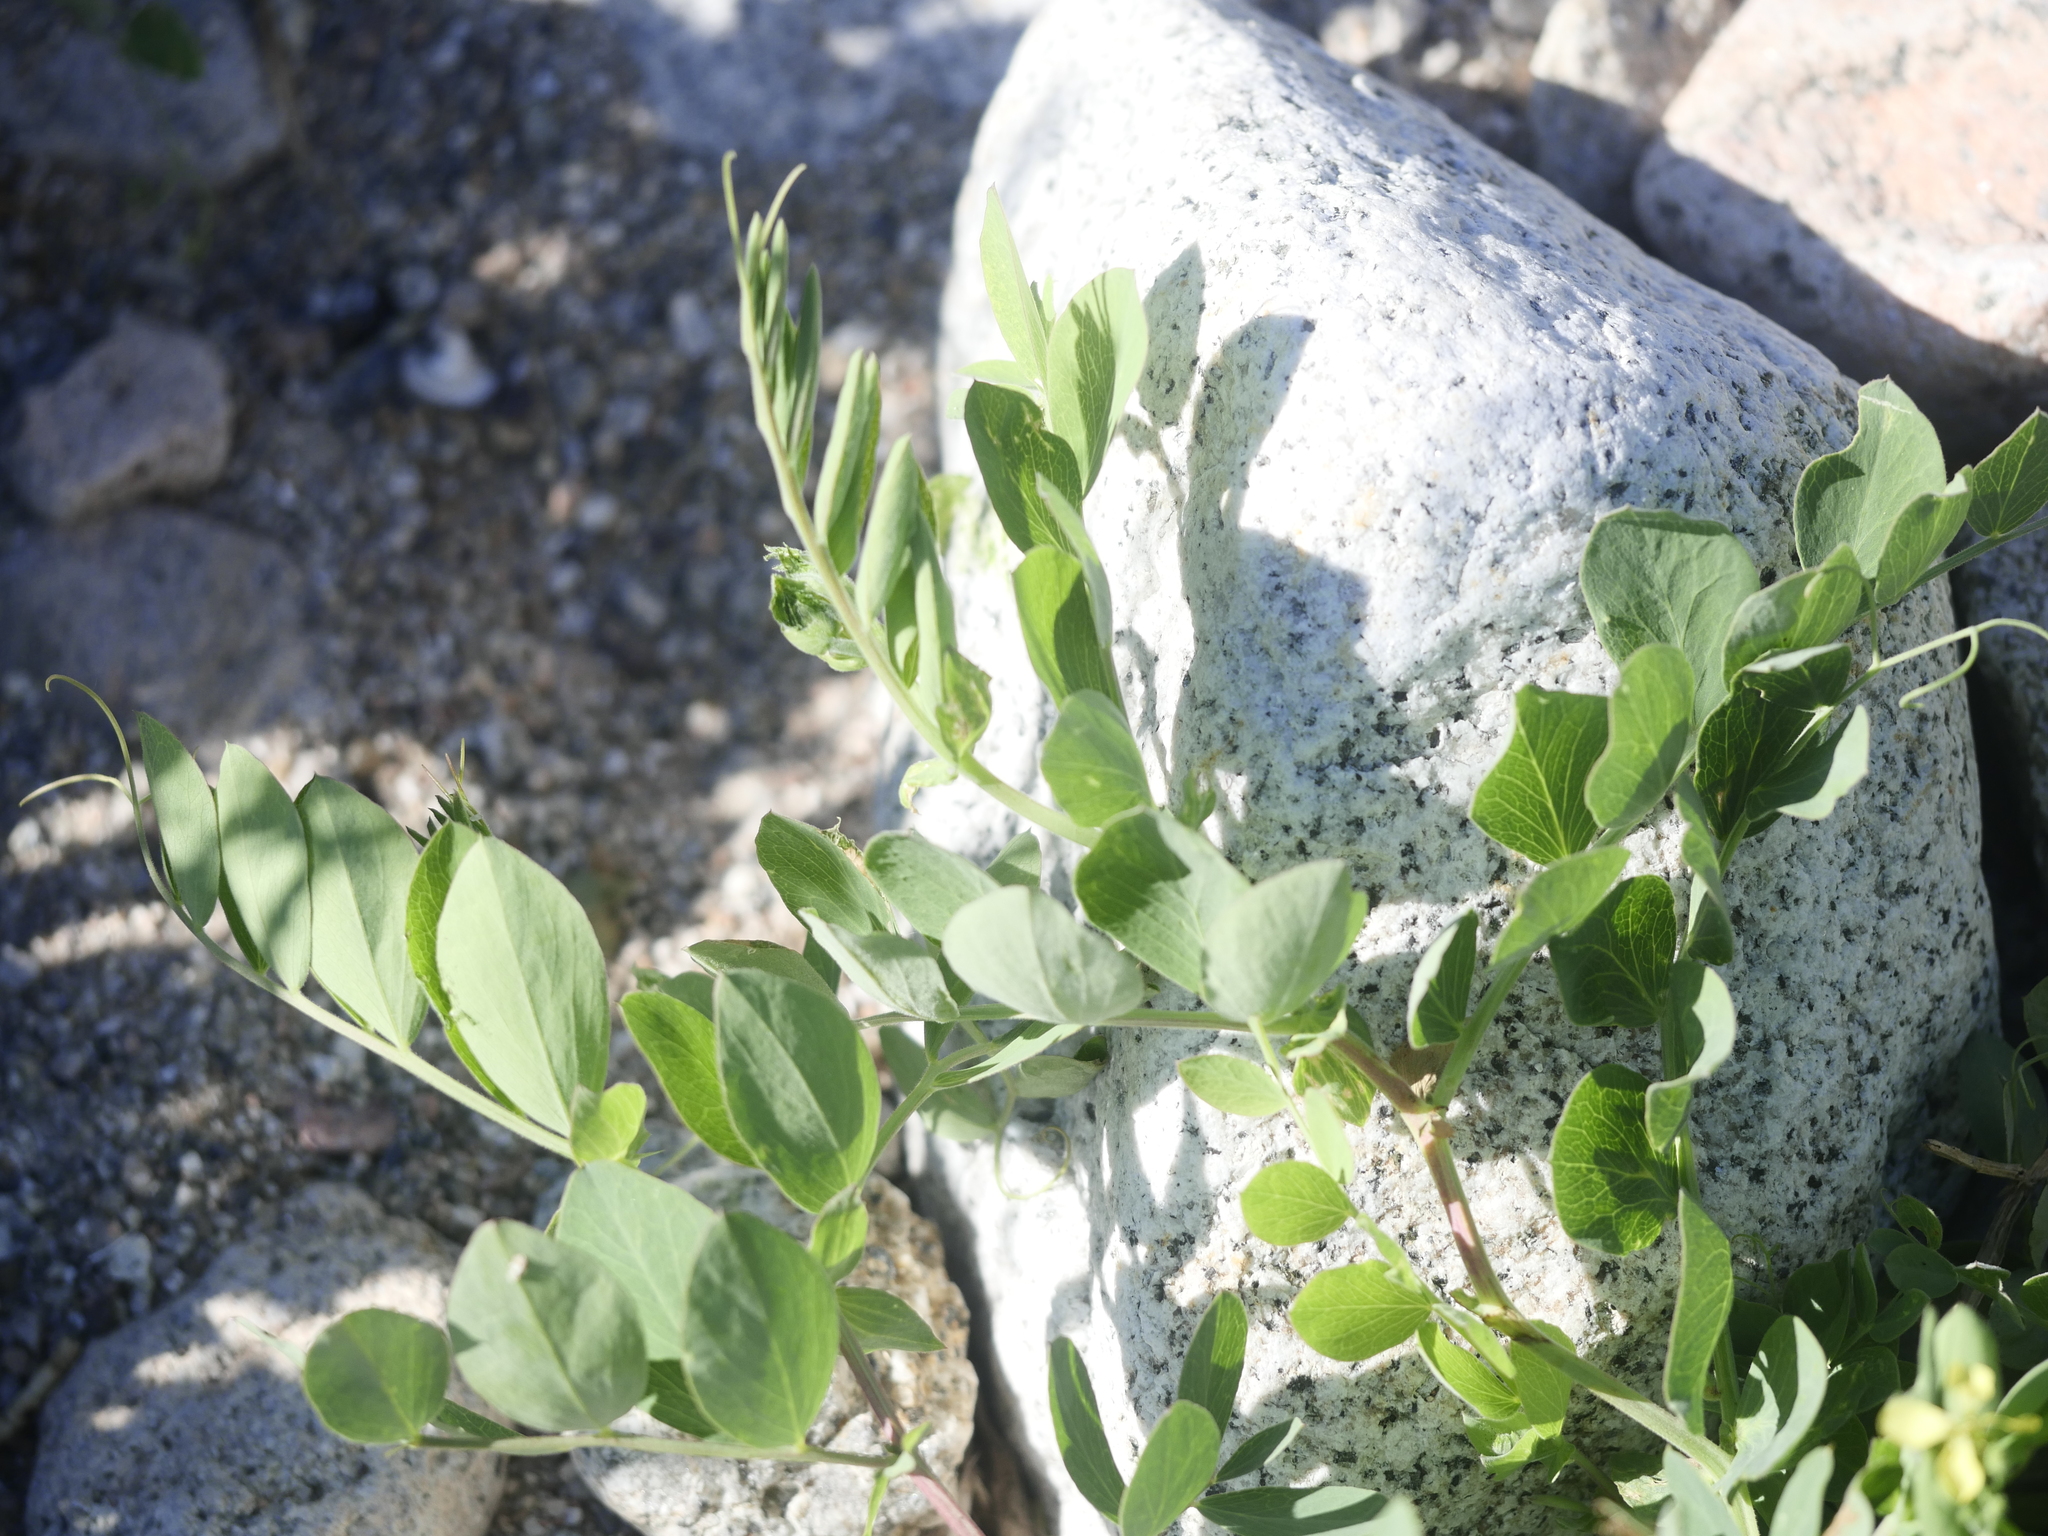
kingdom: Plantae
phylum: Tracheophyta
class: Magnoliopsida
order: Fabales
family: Fabaceae
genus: Lathyrus
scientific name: Lathyrus japonicus
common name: Sea pea
